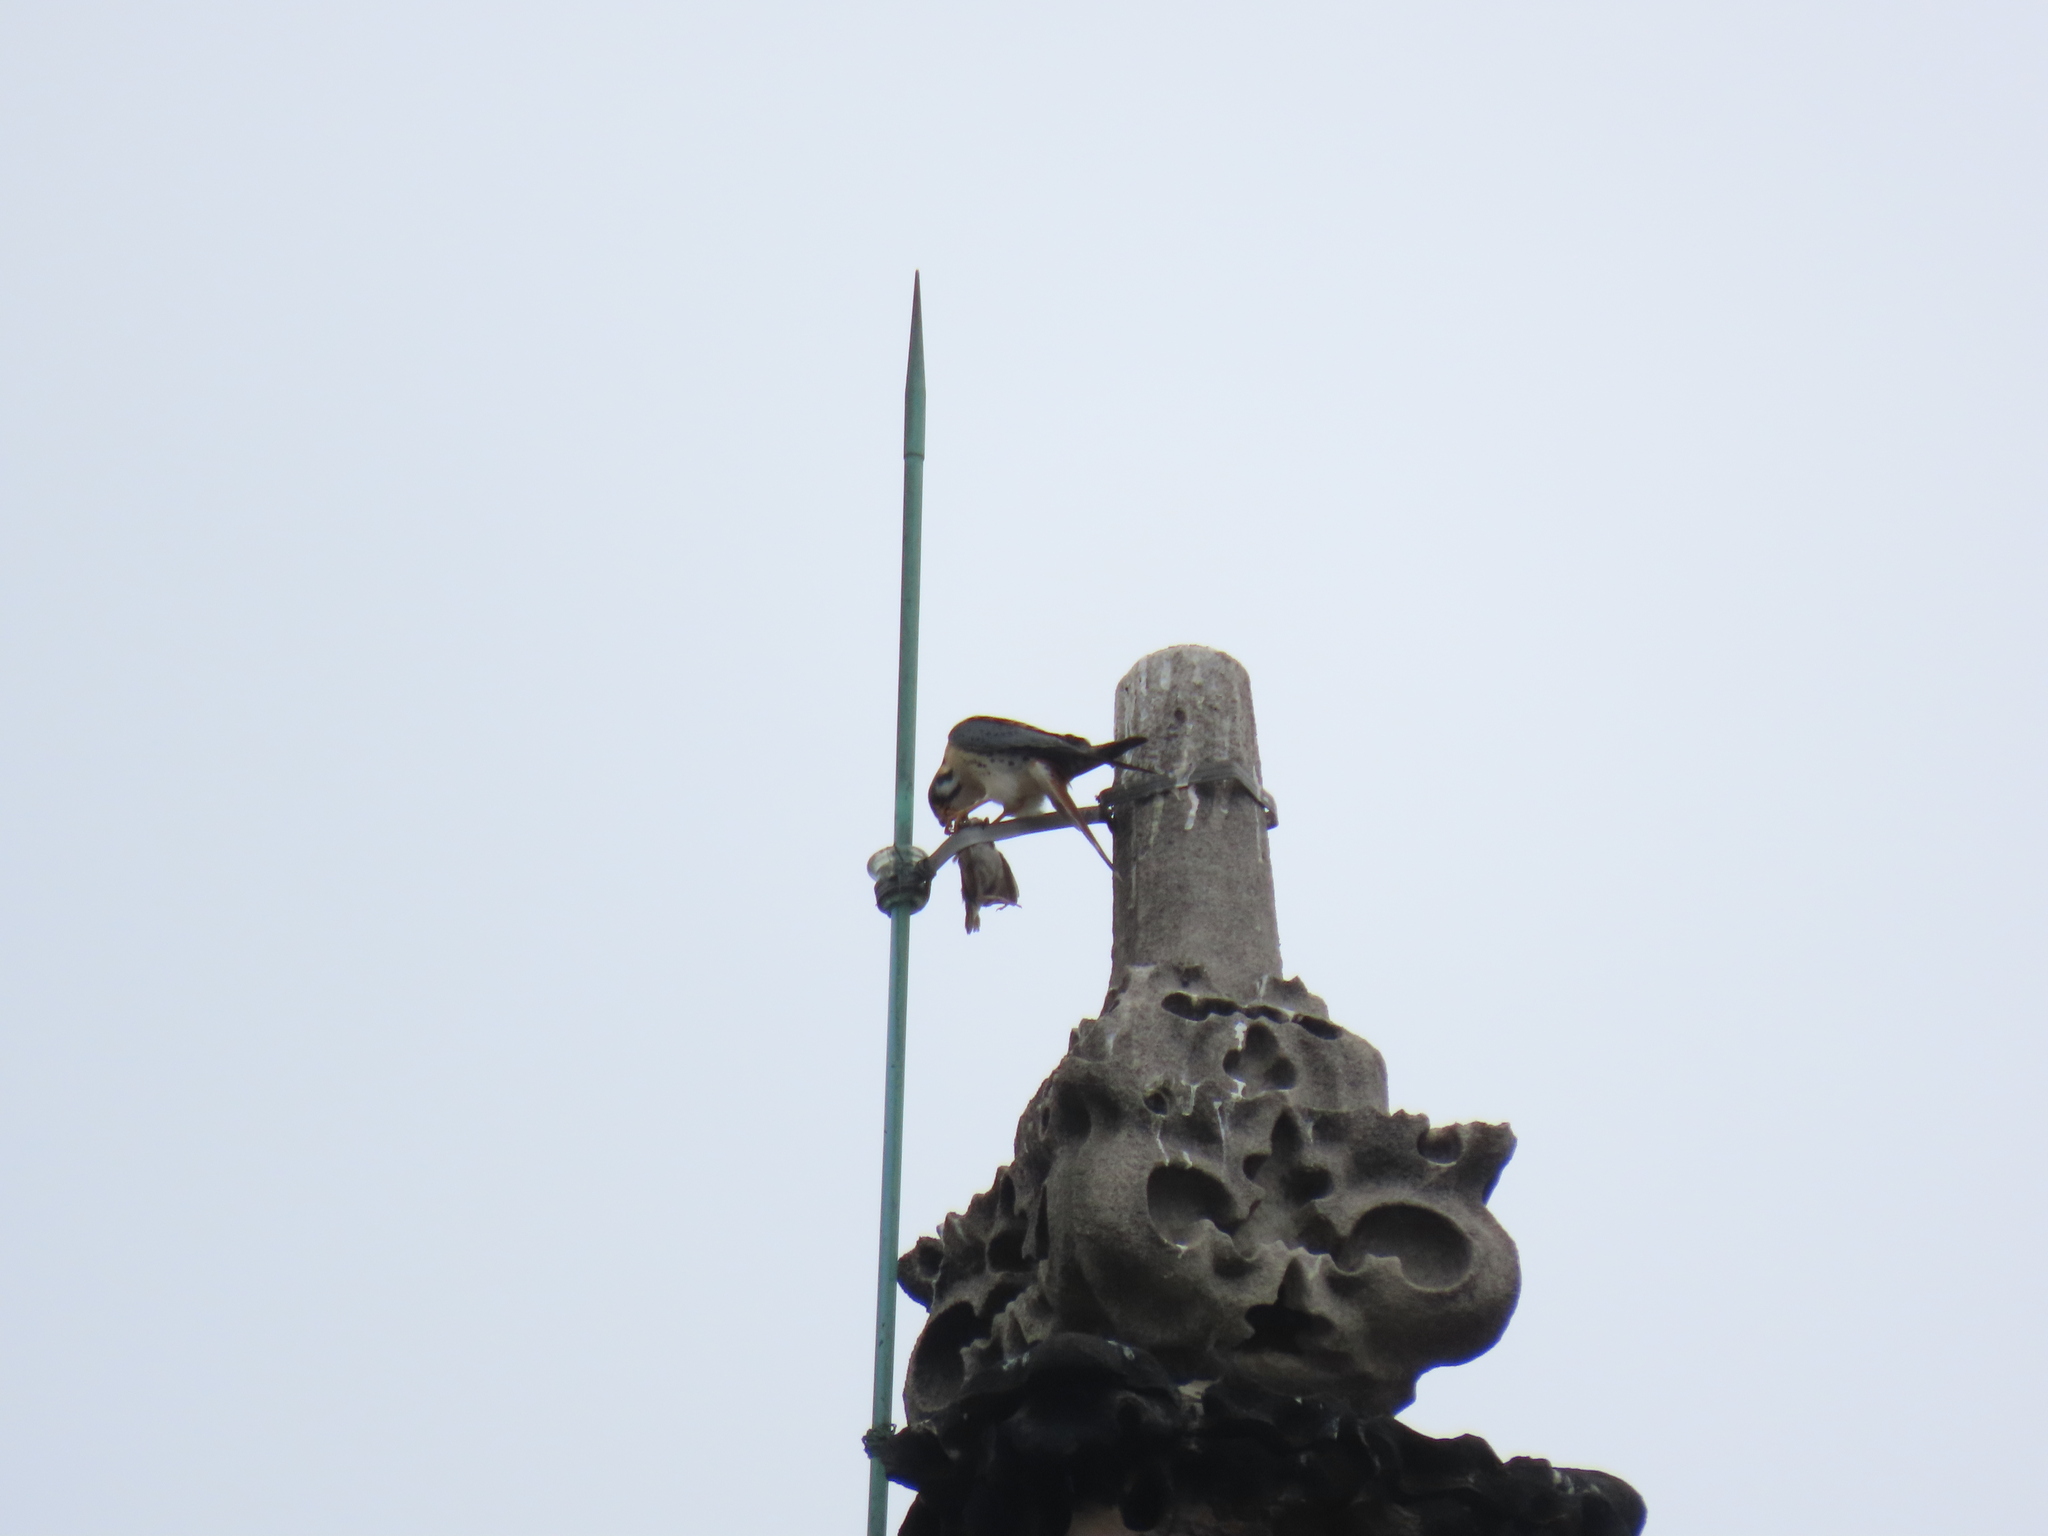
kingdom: Animalia
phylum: Chordata
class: Aves
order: Falconiformes
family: Falconidae
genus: Falco
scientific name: Falco sparverius
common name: American kestrel
